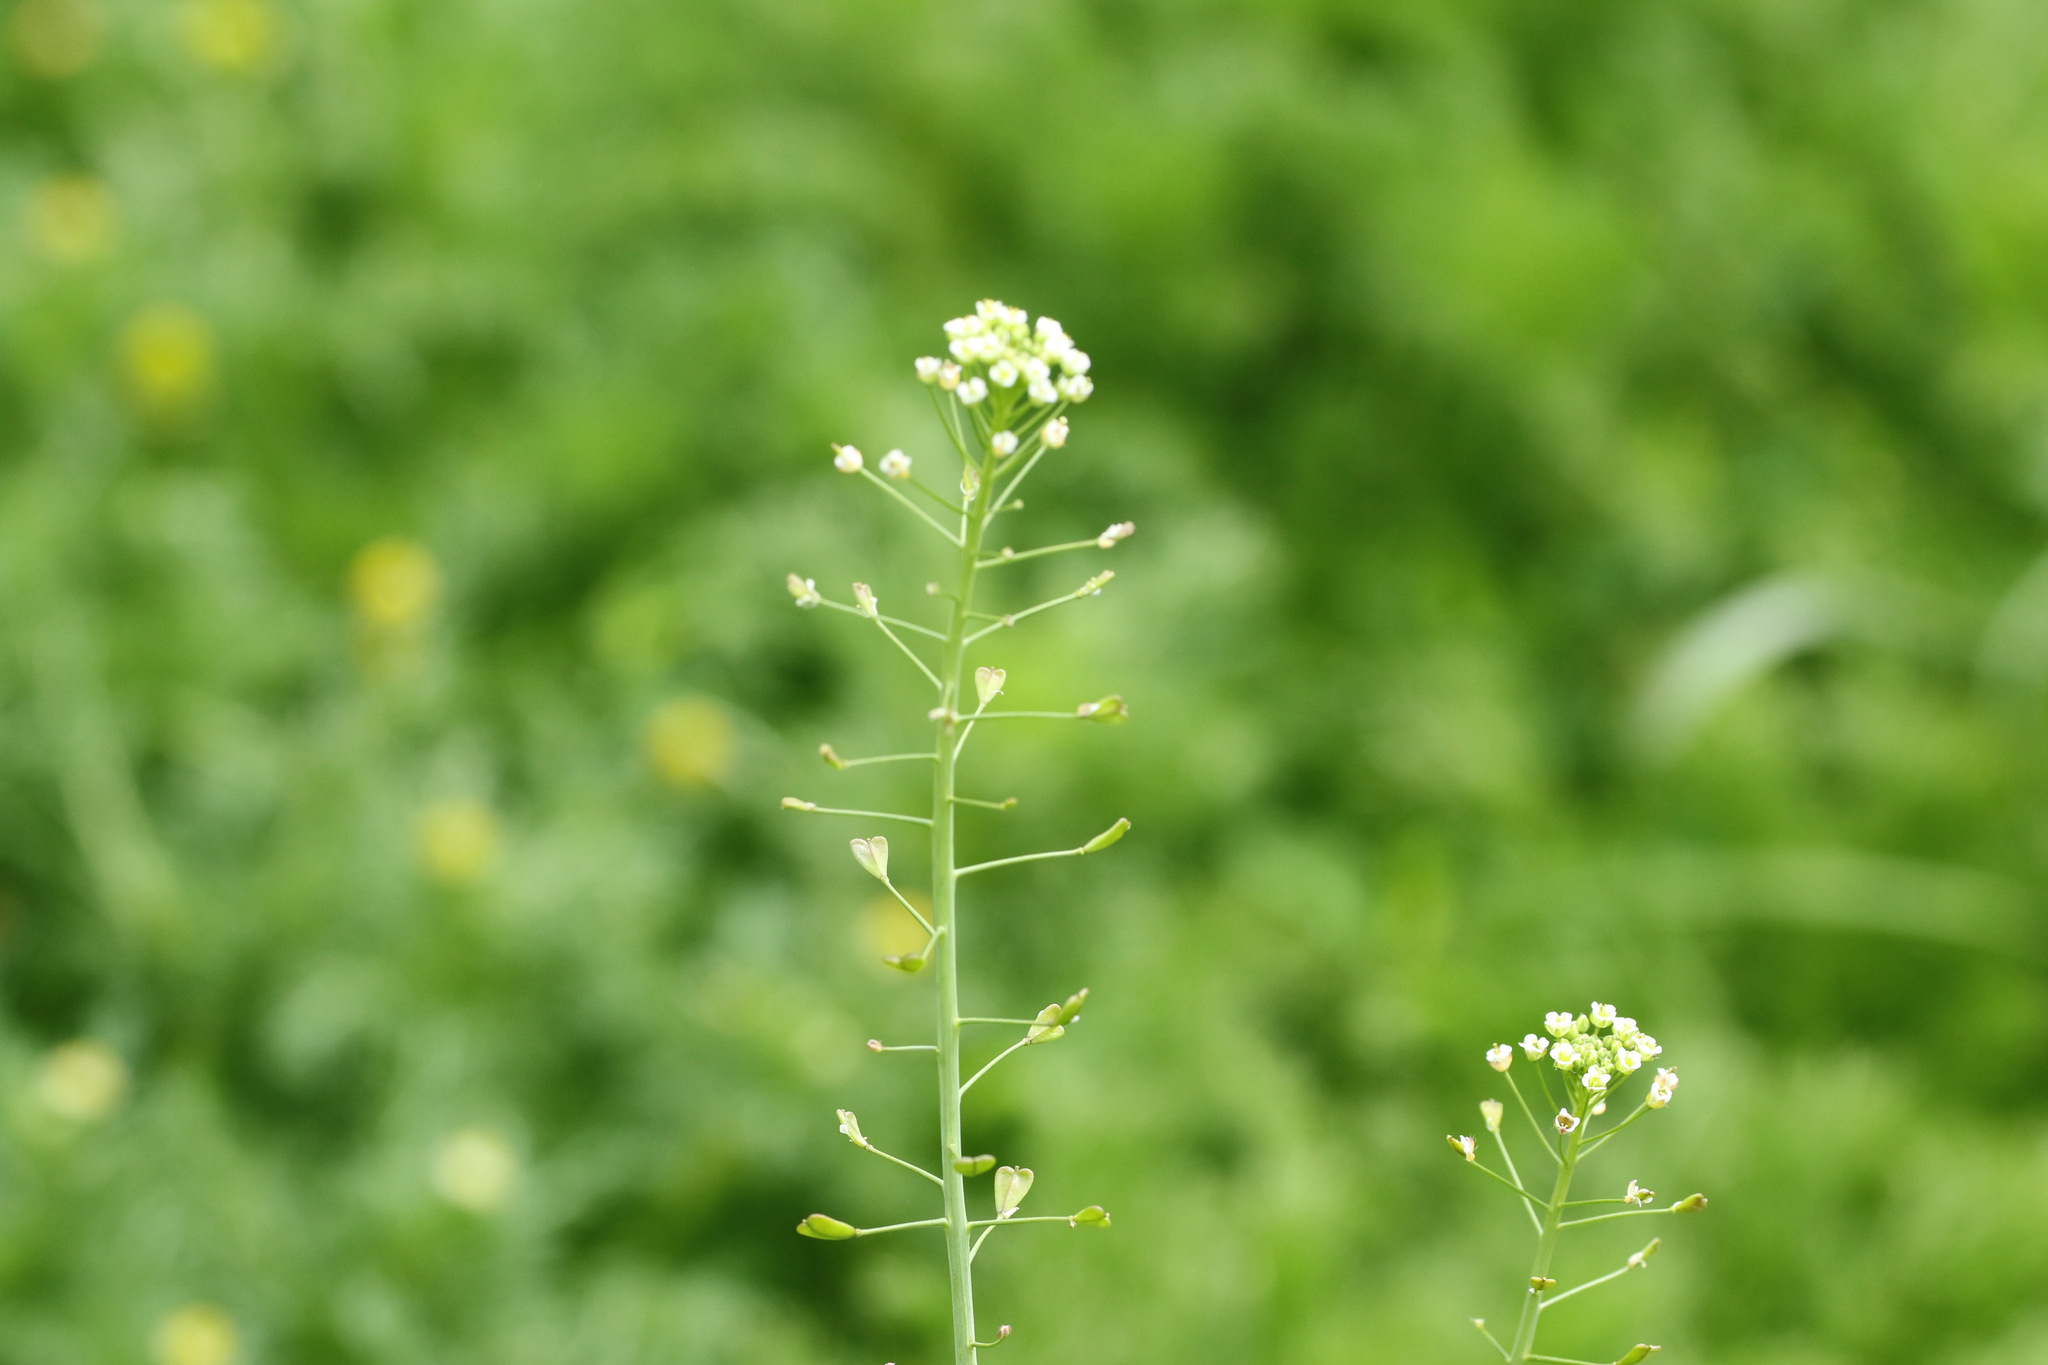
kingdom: Plantae
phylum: Tracheophyta
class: Magnoliopsida
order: Brassicales
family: Brassicaceae
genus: Capsella
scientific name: Capsella bursa-pastoris
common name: Shepherd's purse
